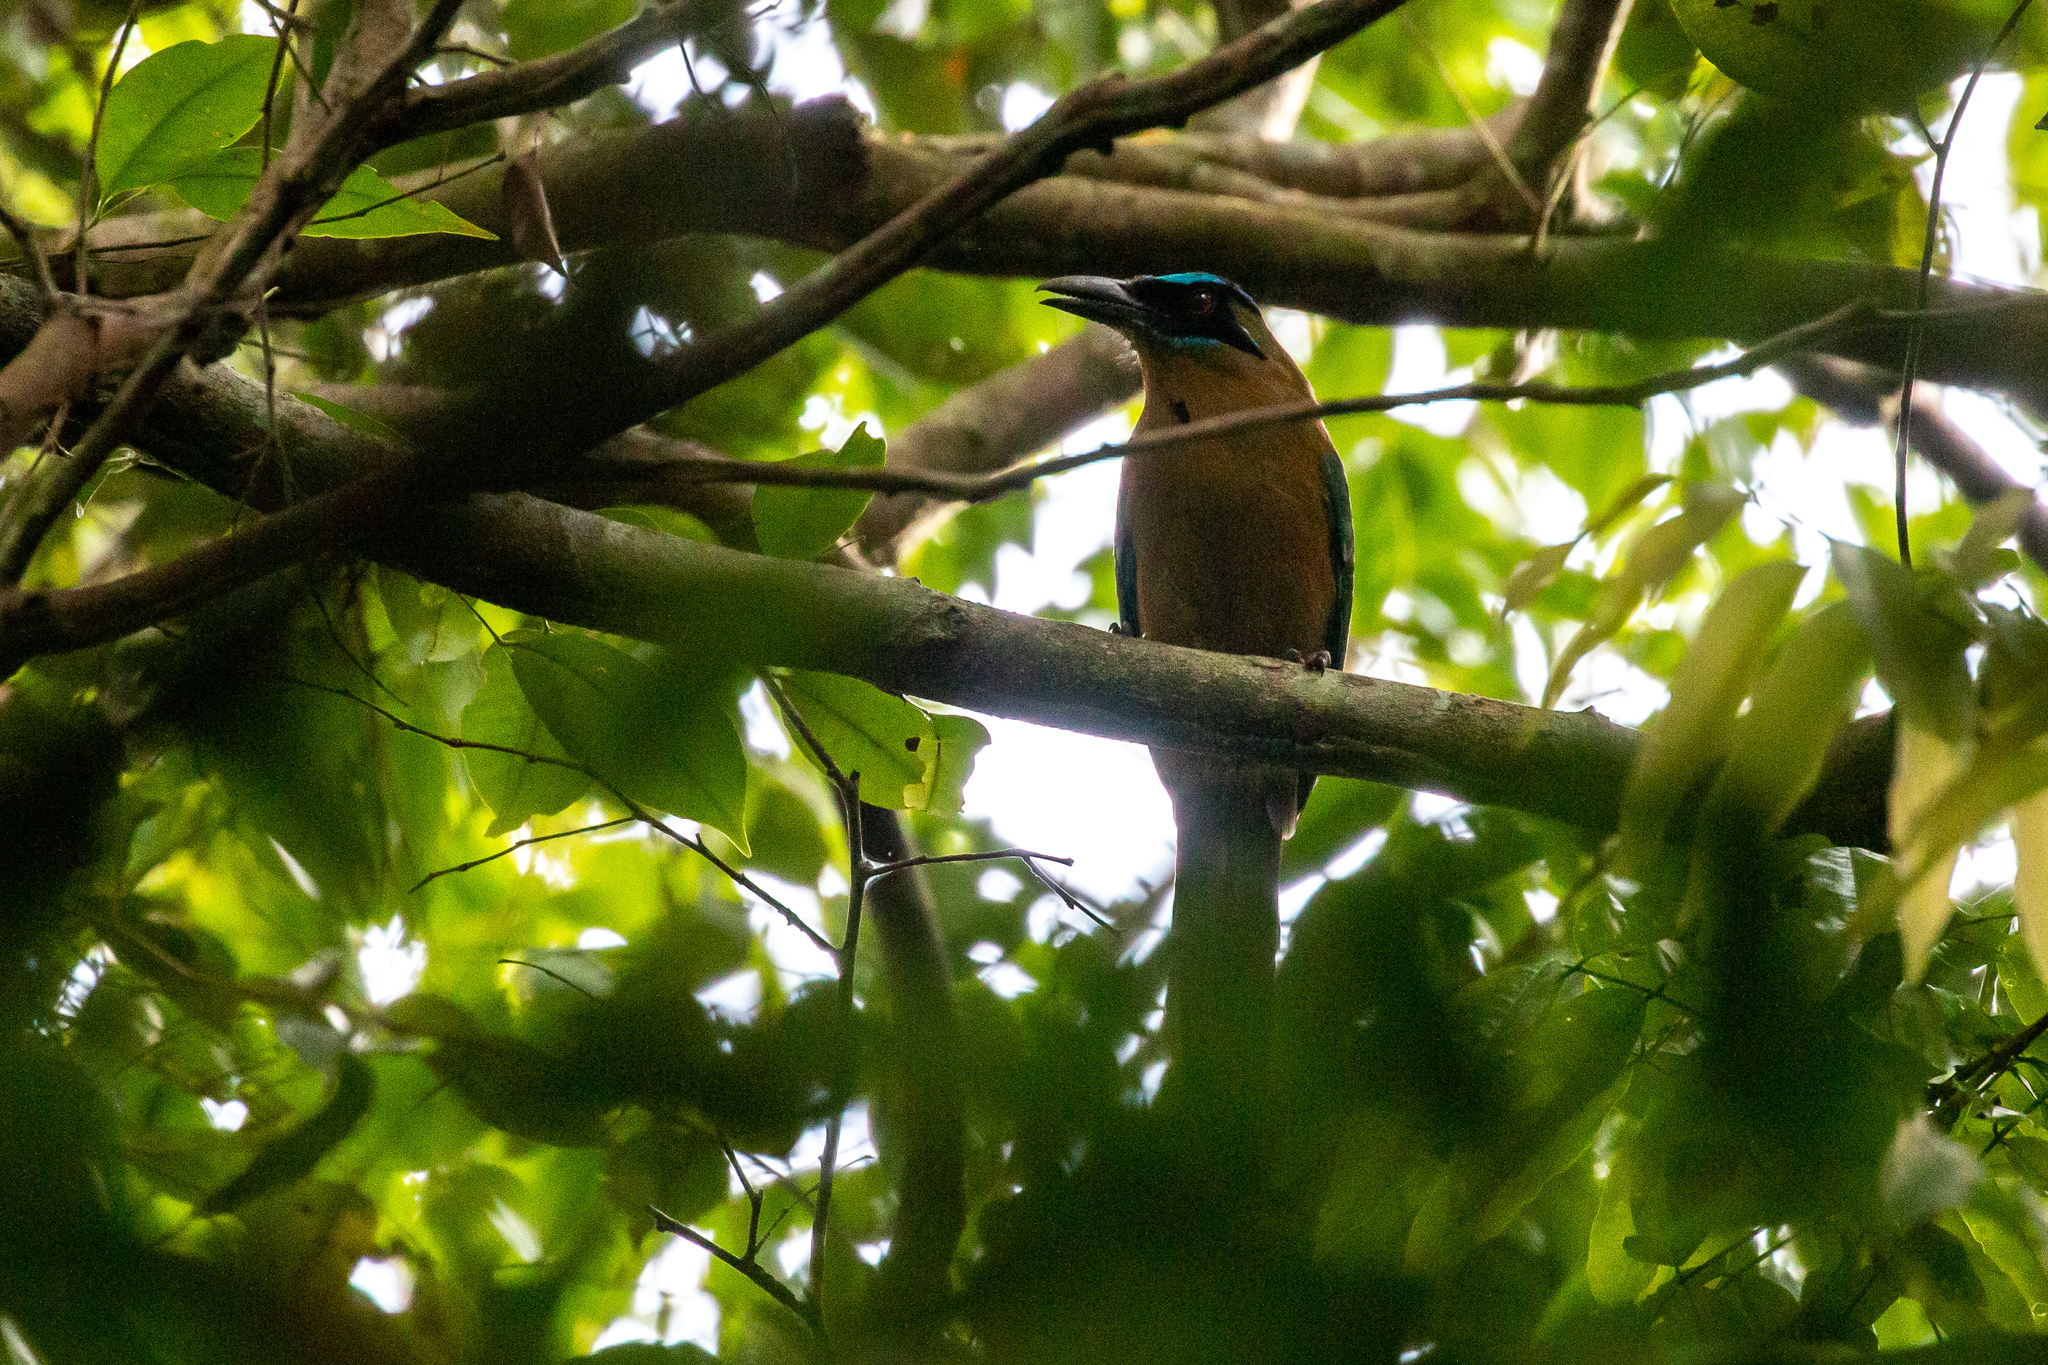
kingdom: Animalia
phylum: Chordata
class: Aves
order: Coraciiformes
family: Momotidae
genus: Momotus
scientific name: Momotus momota
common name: Amazonian motmot
